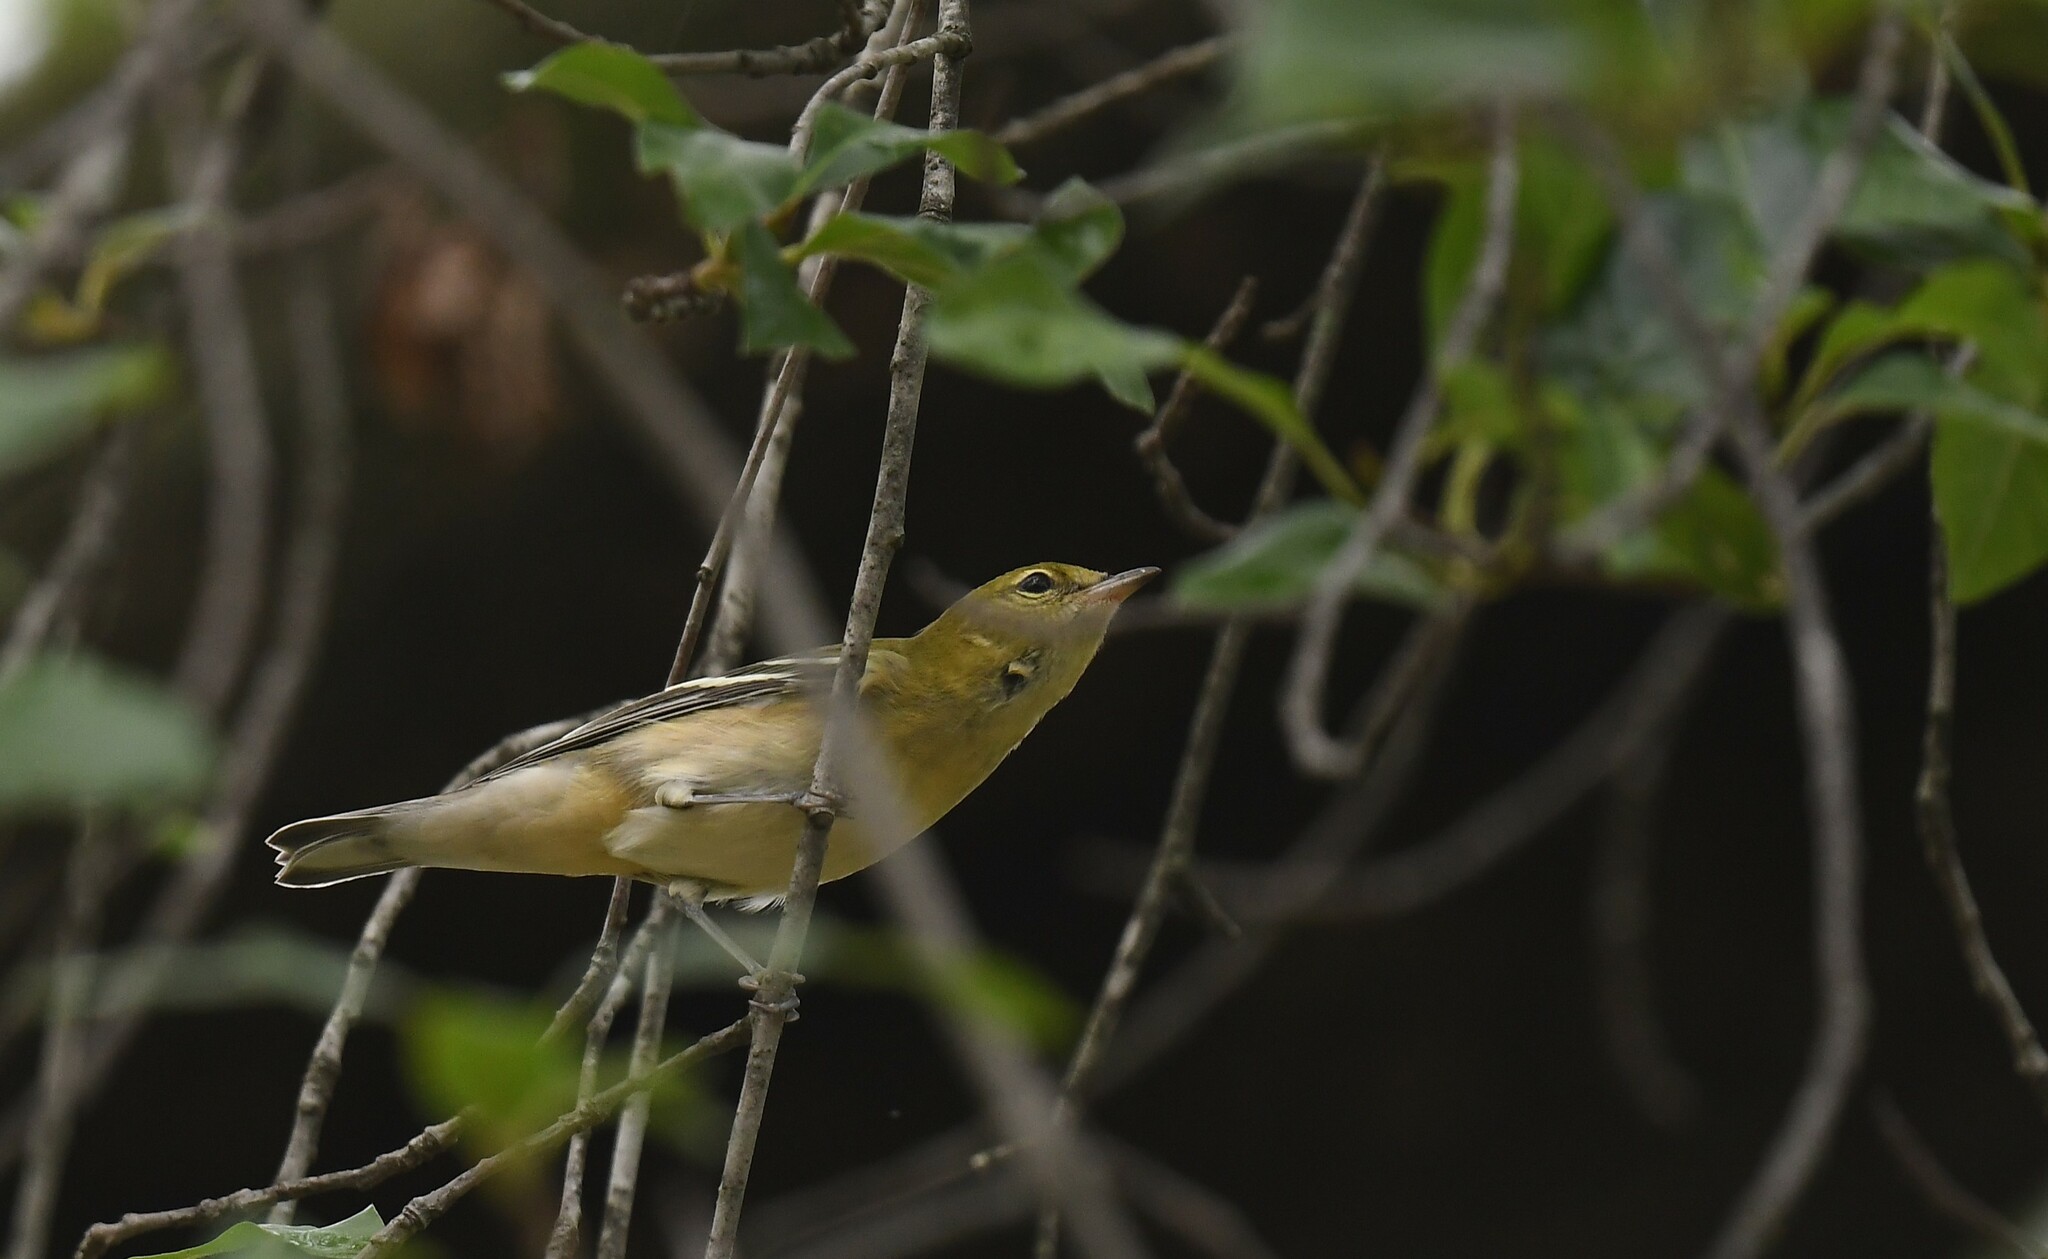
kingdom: Animalia
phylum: Chordata
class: Aves
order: Passeriformes
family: Parulidae
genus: Setophaga
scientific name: Setophaga castanea
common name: Bay-breasted warbler
